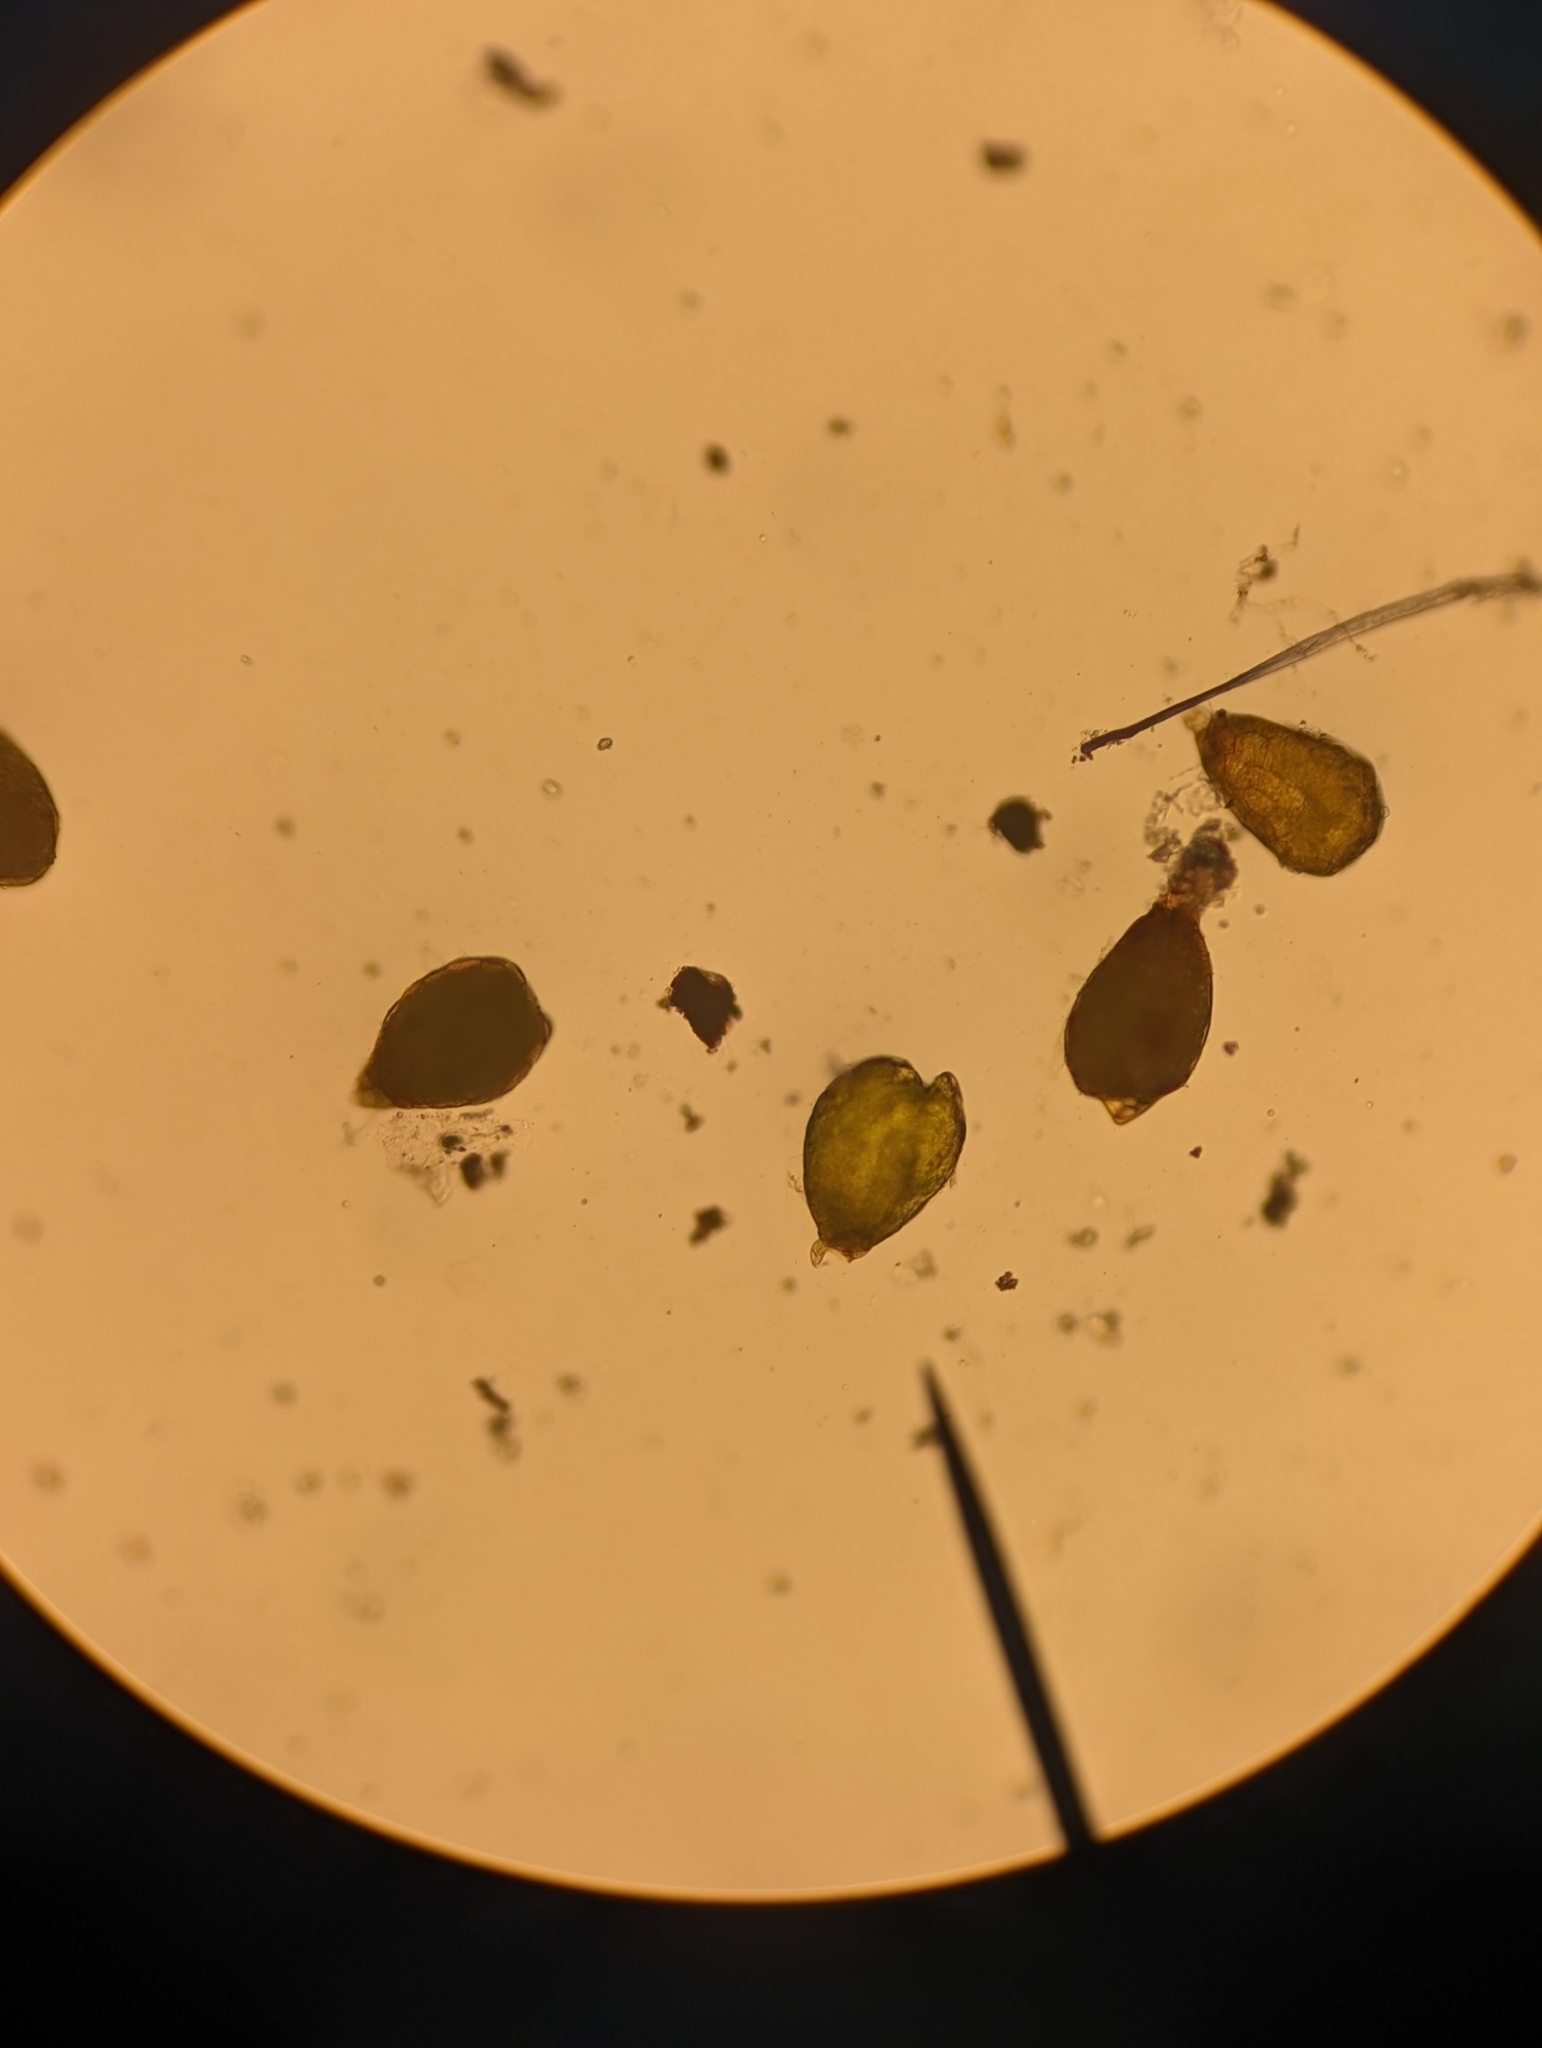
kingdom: Plantae
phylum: Bryophyta
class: Bryopsida
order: Bryales
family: Bryaceae
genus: Gemmabryum
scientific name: Gemmabryum
